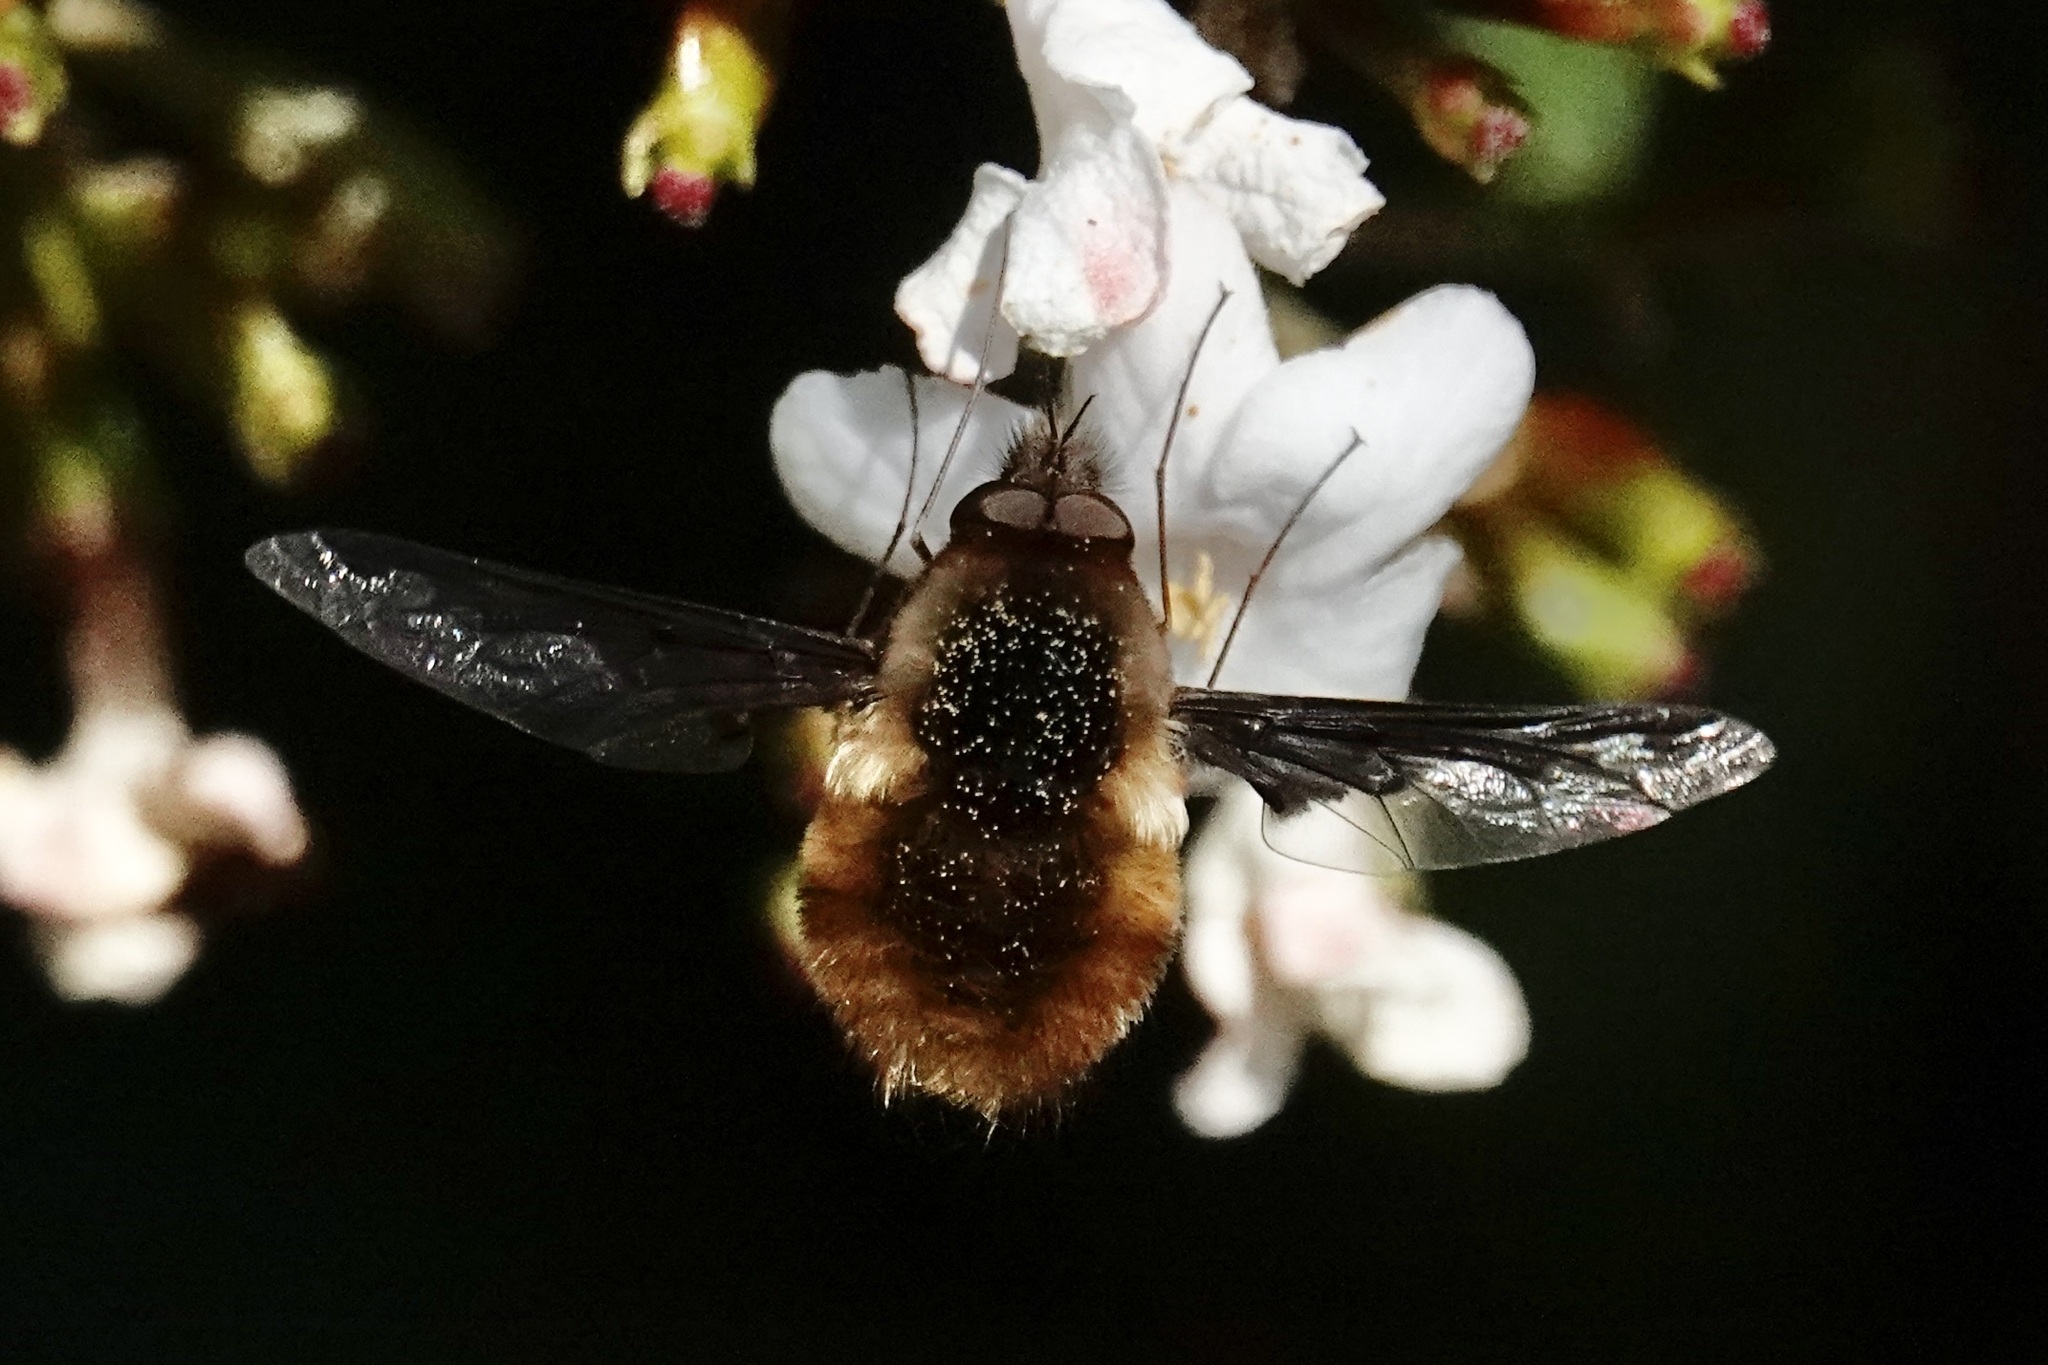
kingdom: Animalia
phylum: Arthropoda
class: Insecta
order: Diptera
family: Bombyliidae
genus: Bombylius
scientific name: Bombylius major
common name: Bee fly
